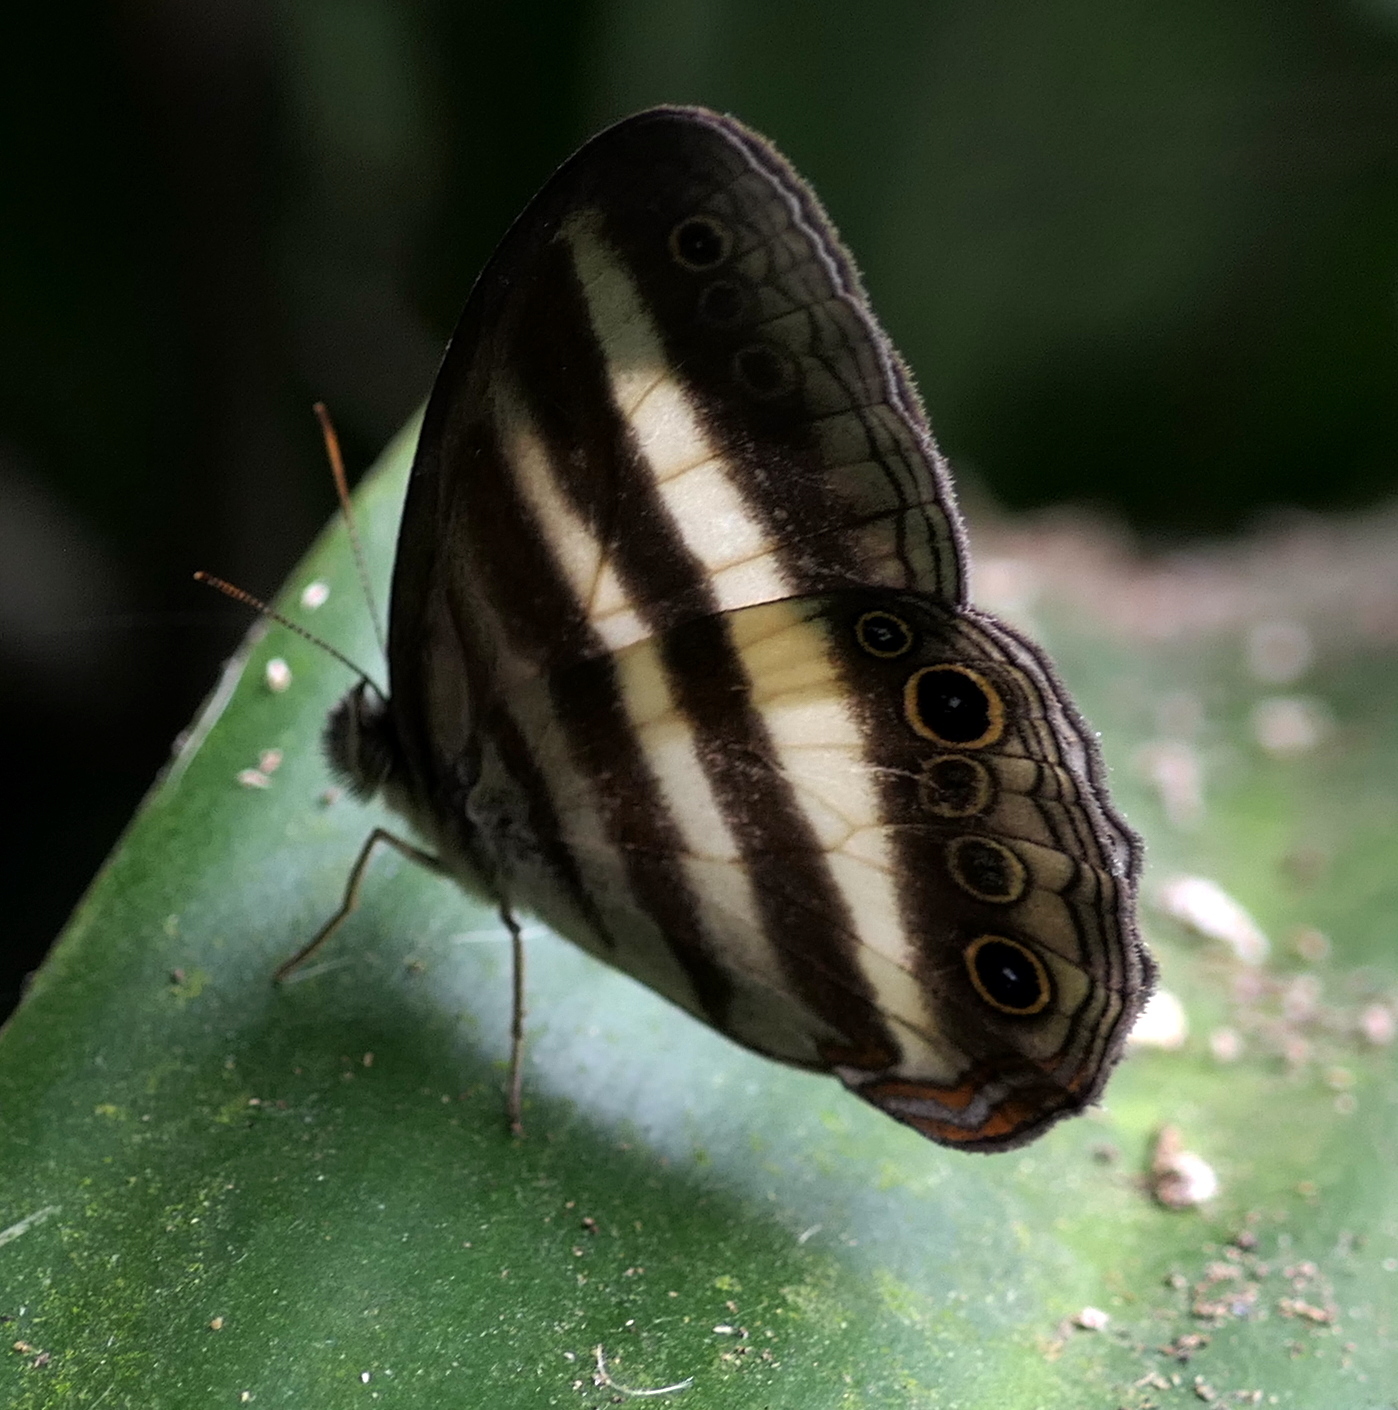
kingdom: Animalia
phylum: Arthropoda
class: Insecta
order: Lepidoptera
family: Nymphalidae
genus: Pareuptychia
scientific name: Pareuptychia hesione
